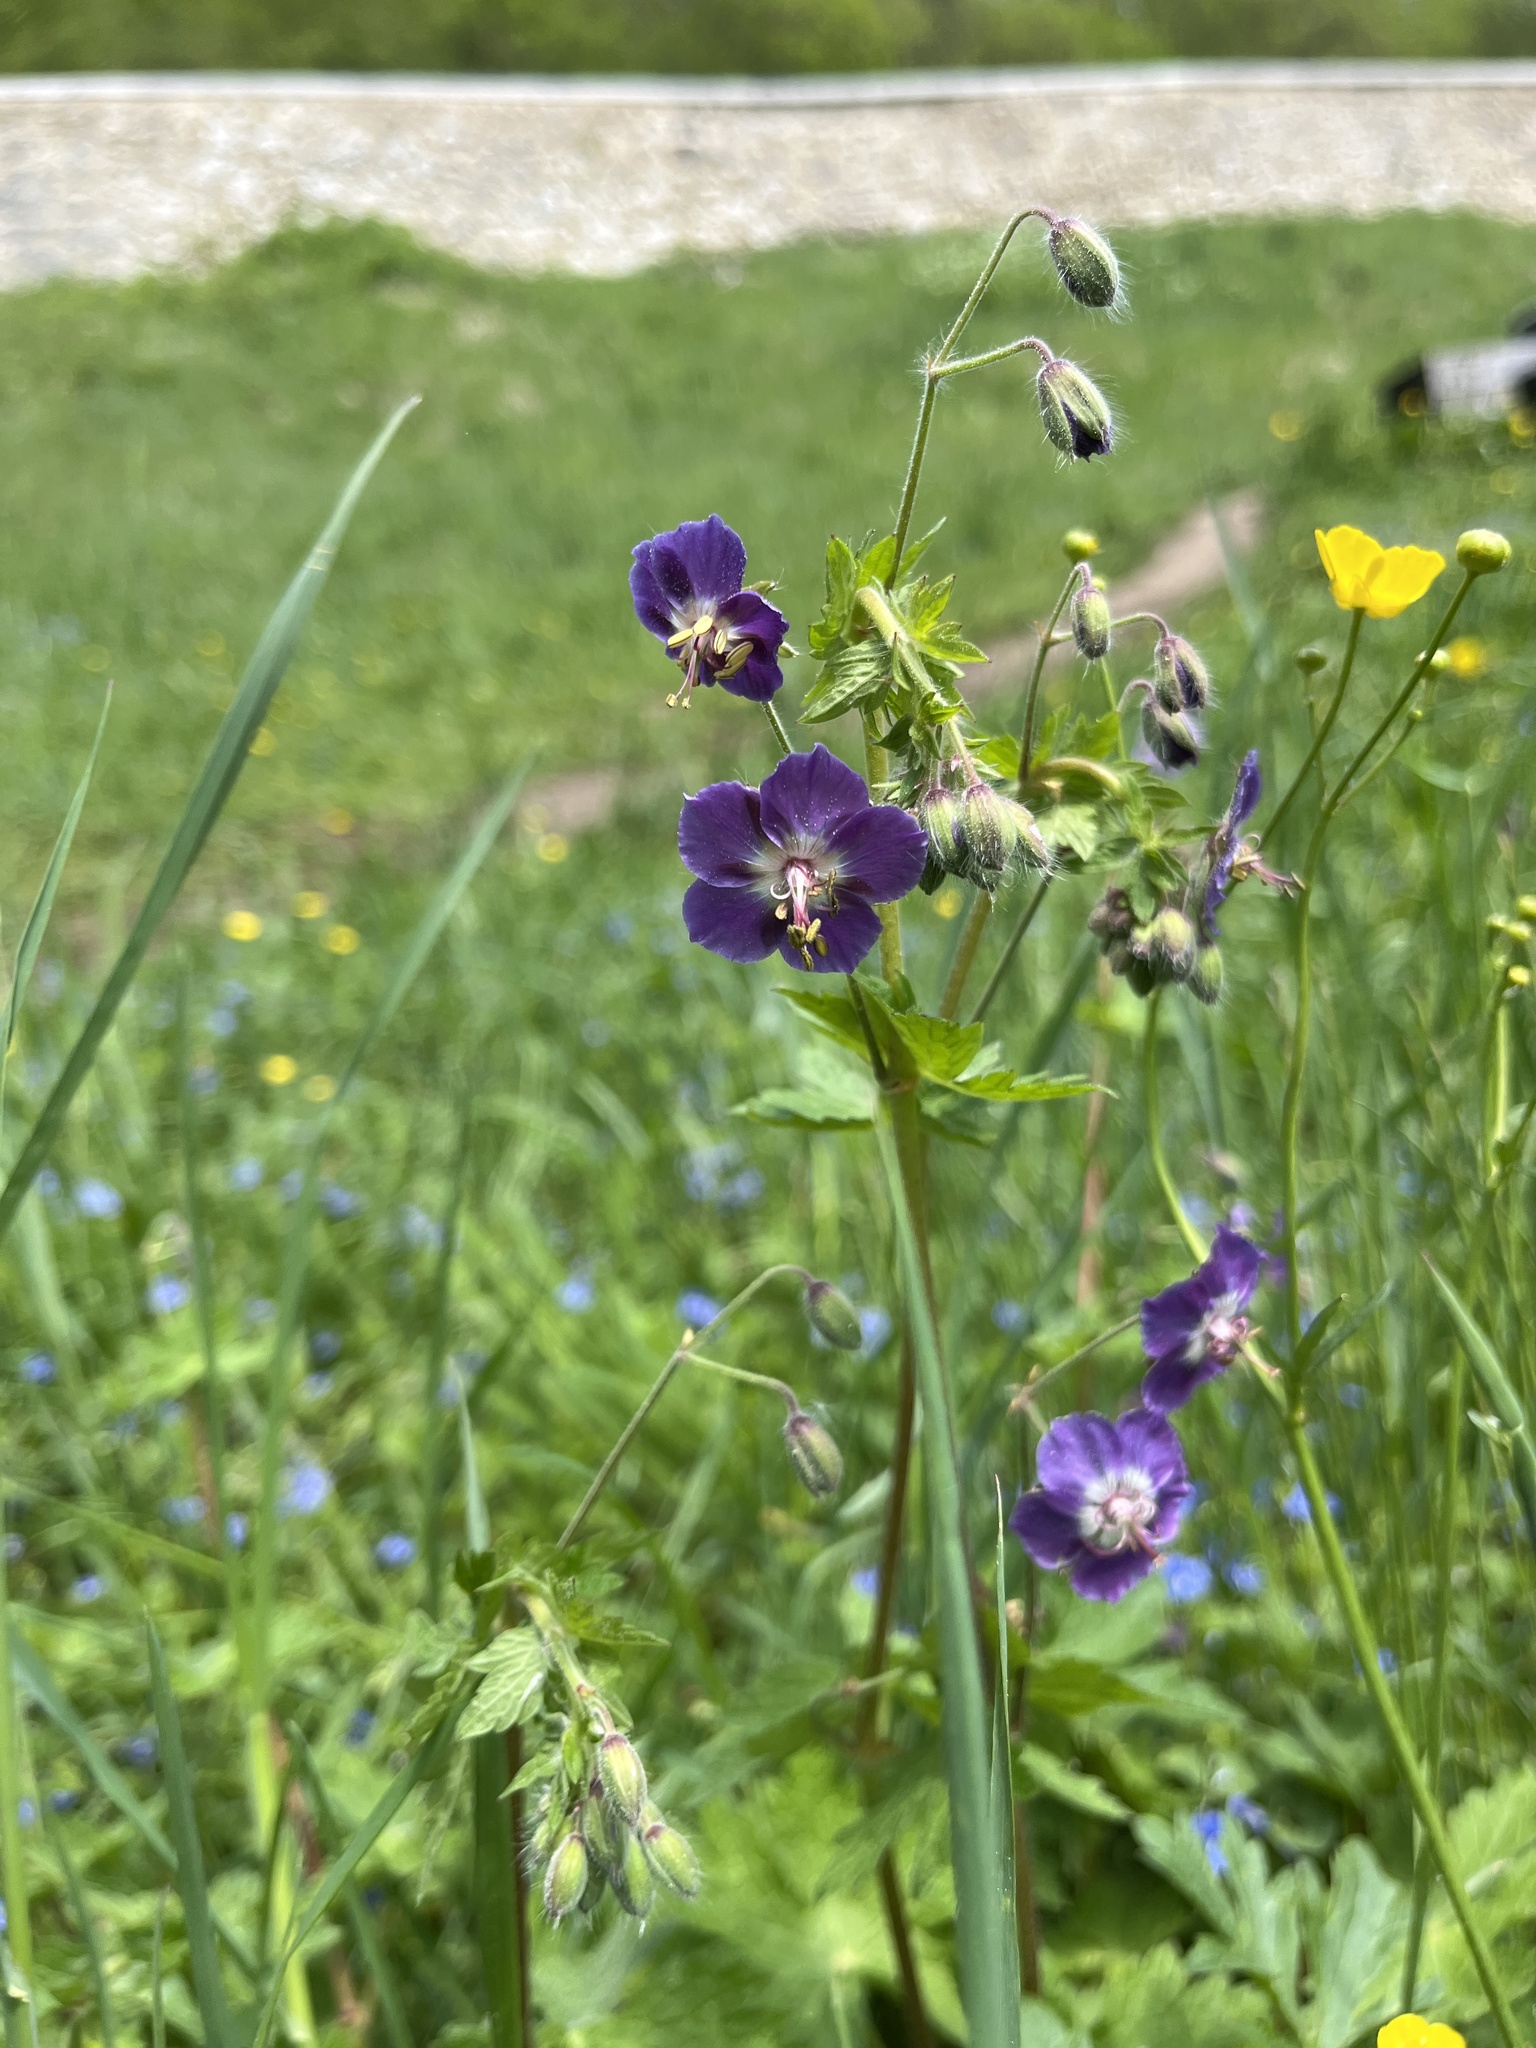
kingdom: Plantae
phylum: Tracheophyta
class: Magnoliopsida
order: Geraniales
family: Geraniaceae
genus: Geranium
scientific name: Geranium phaeum
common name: Dusky crane's-bill
